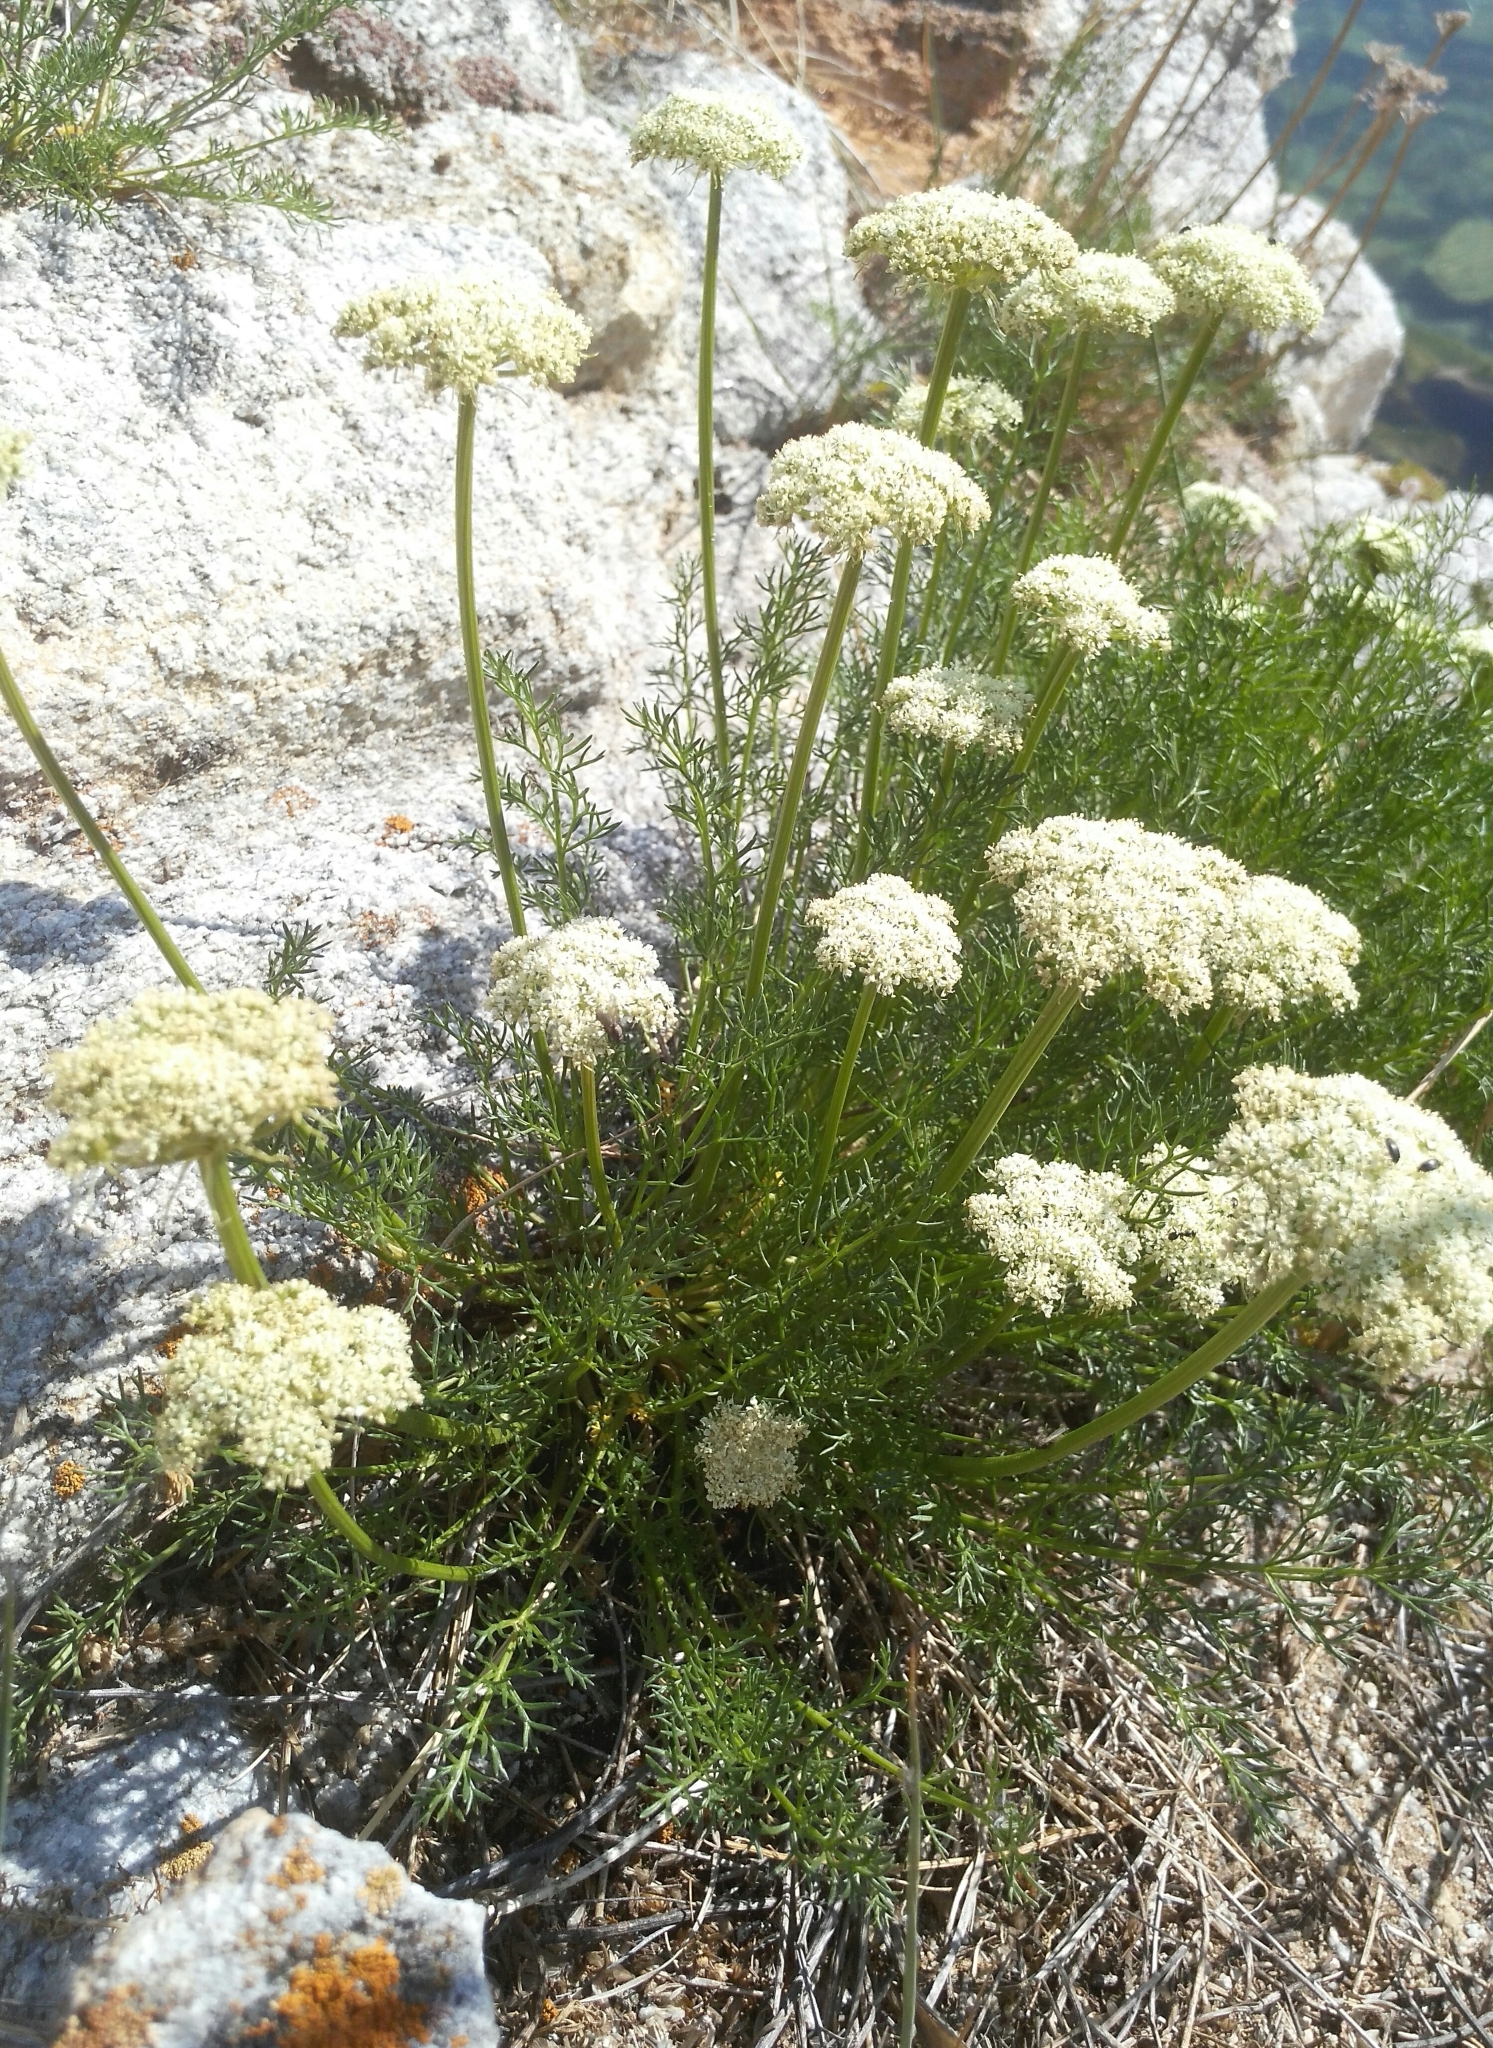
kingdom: Plantae
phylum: Tracheophyta
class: Magnoliopsida
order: Apiales
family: Apiaceae
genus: Ferulopsis
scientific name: Ferulopsis hystrix
